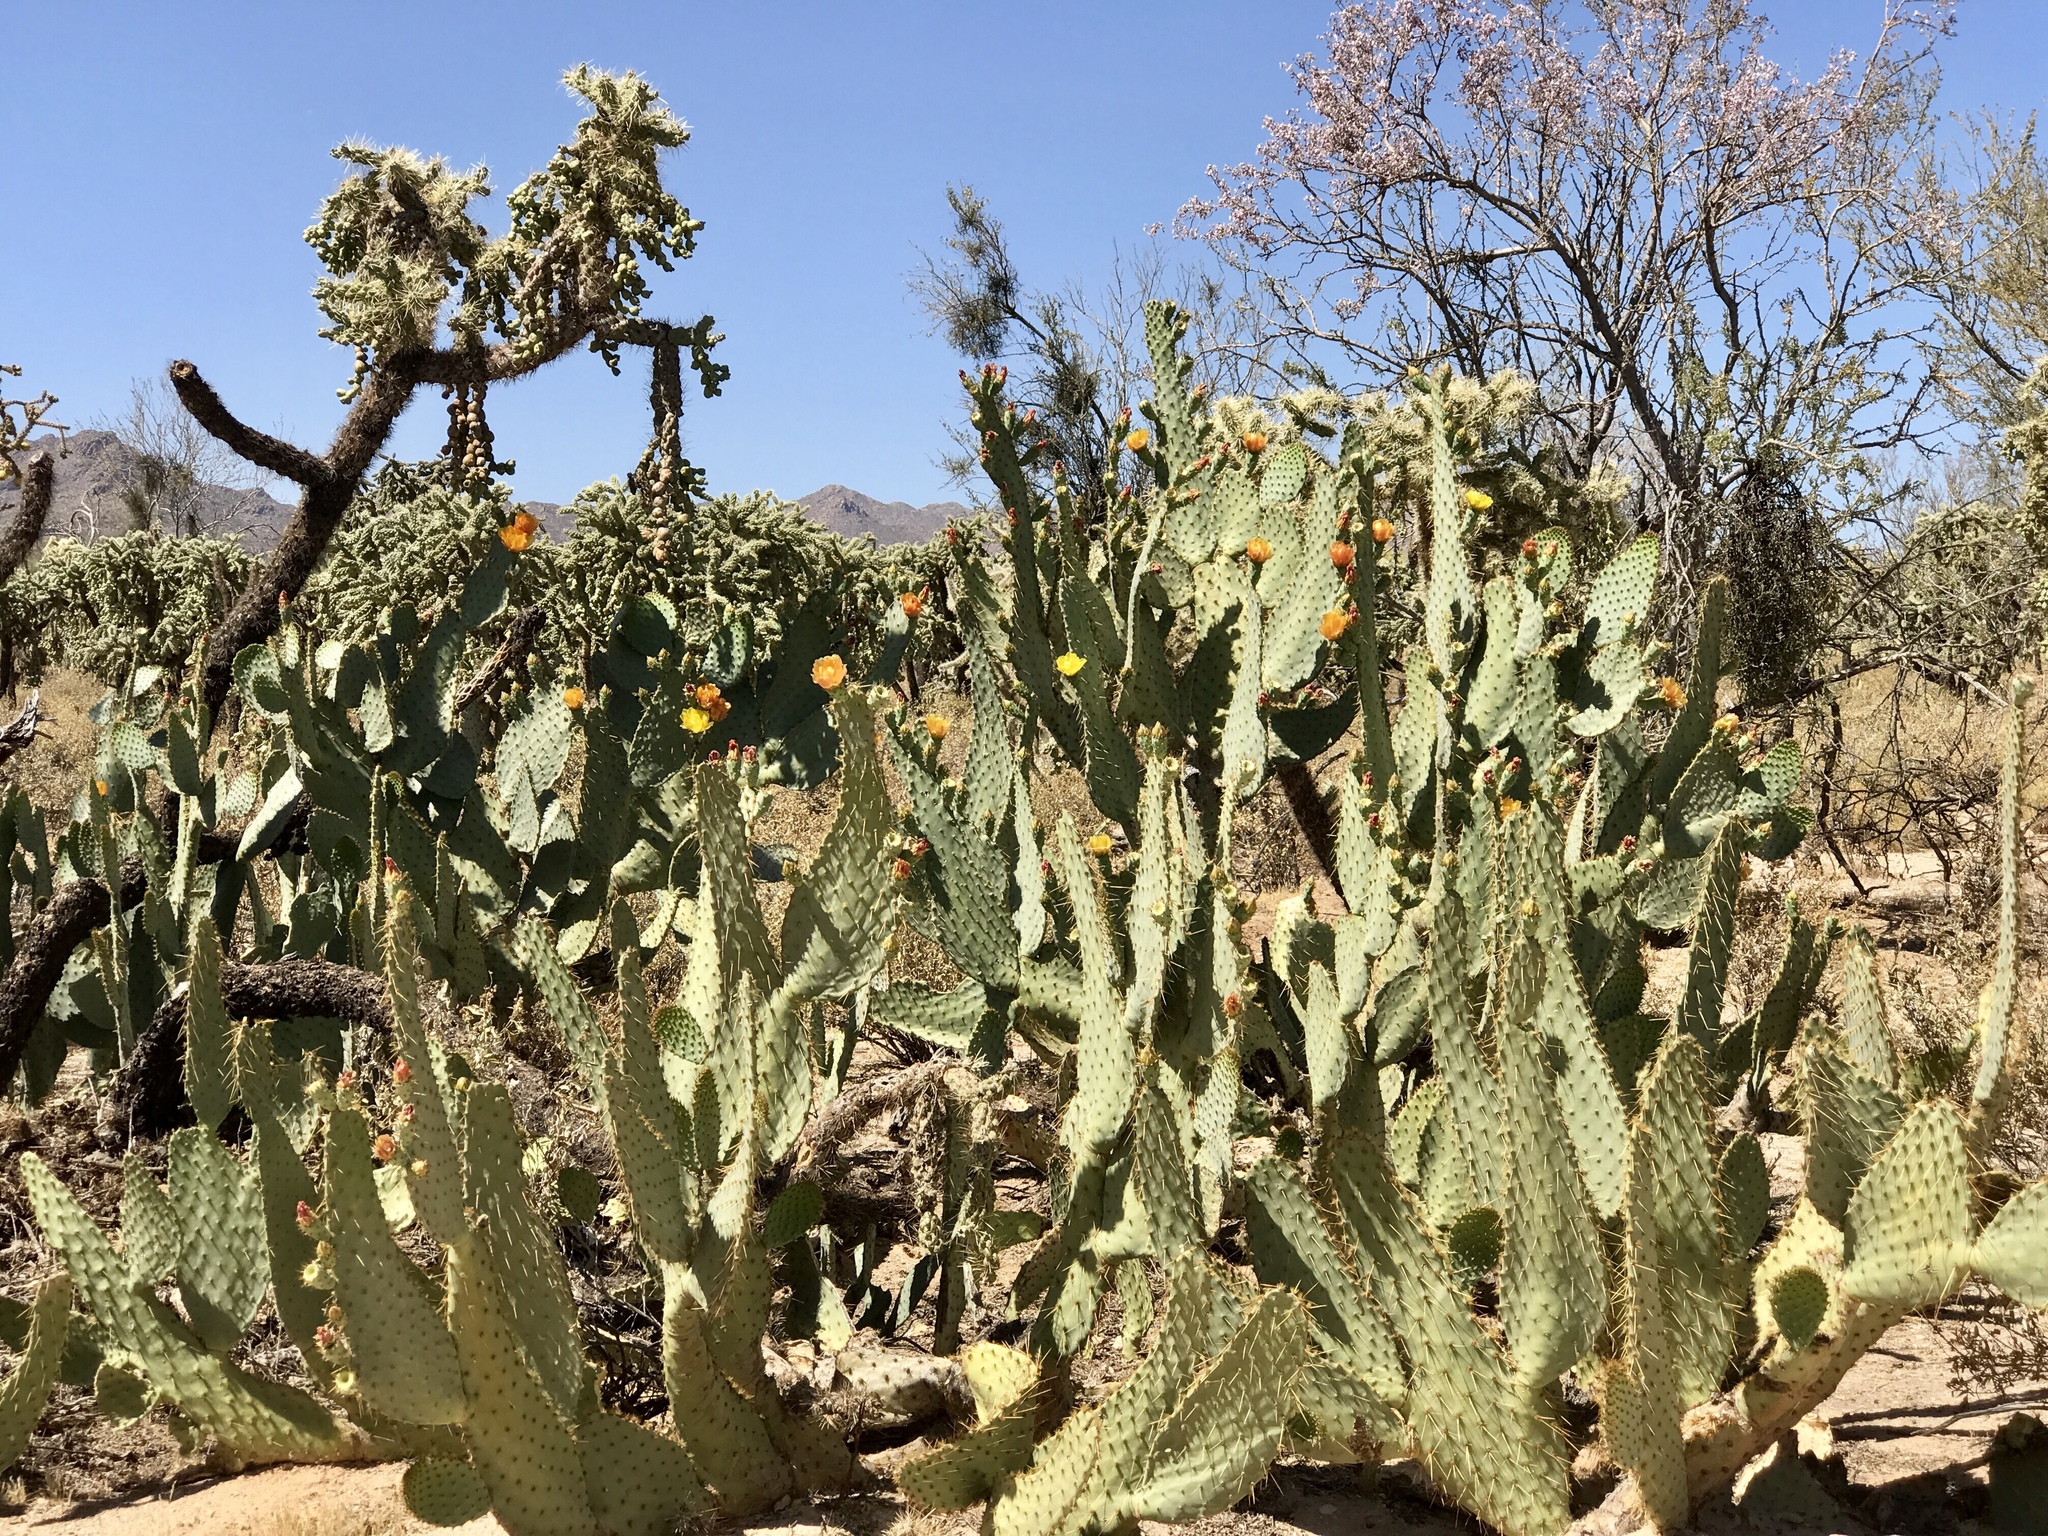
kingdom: Plantae
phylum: Tracheophyta
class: Magnoliopsida
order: Caryophyllales
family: Cactaceae
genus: Opuntia
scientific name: Opuntia engelmannii
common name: Cactus-apple
